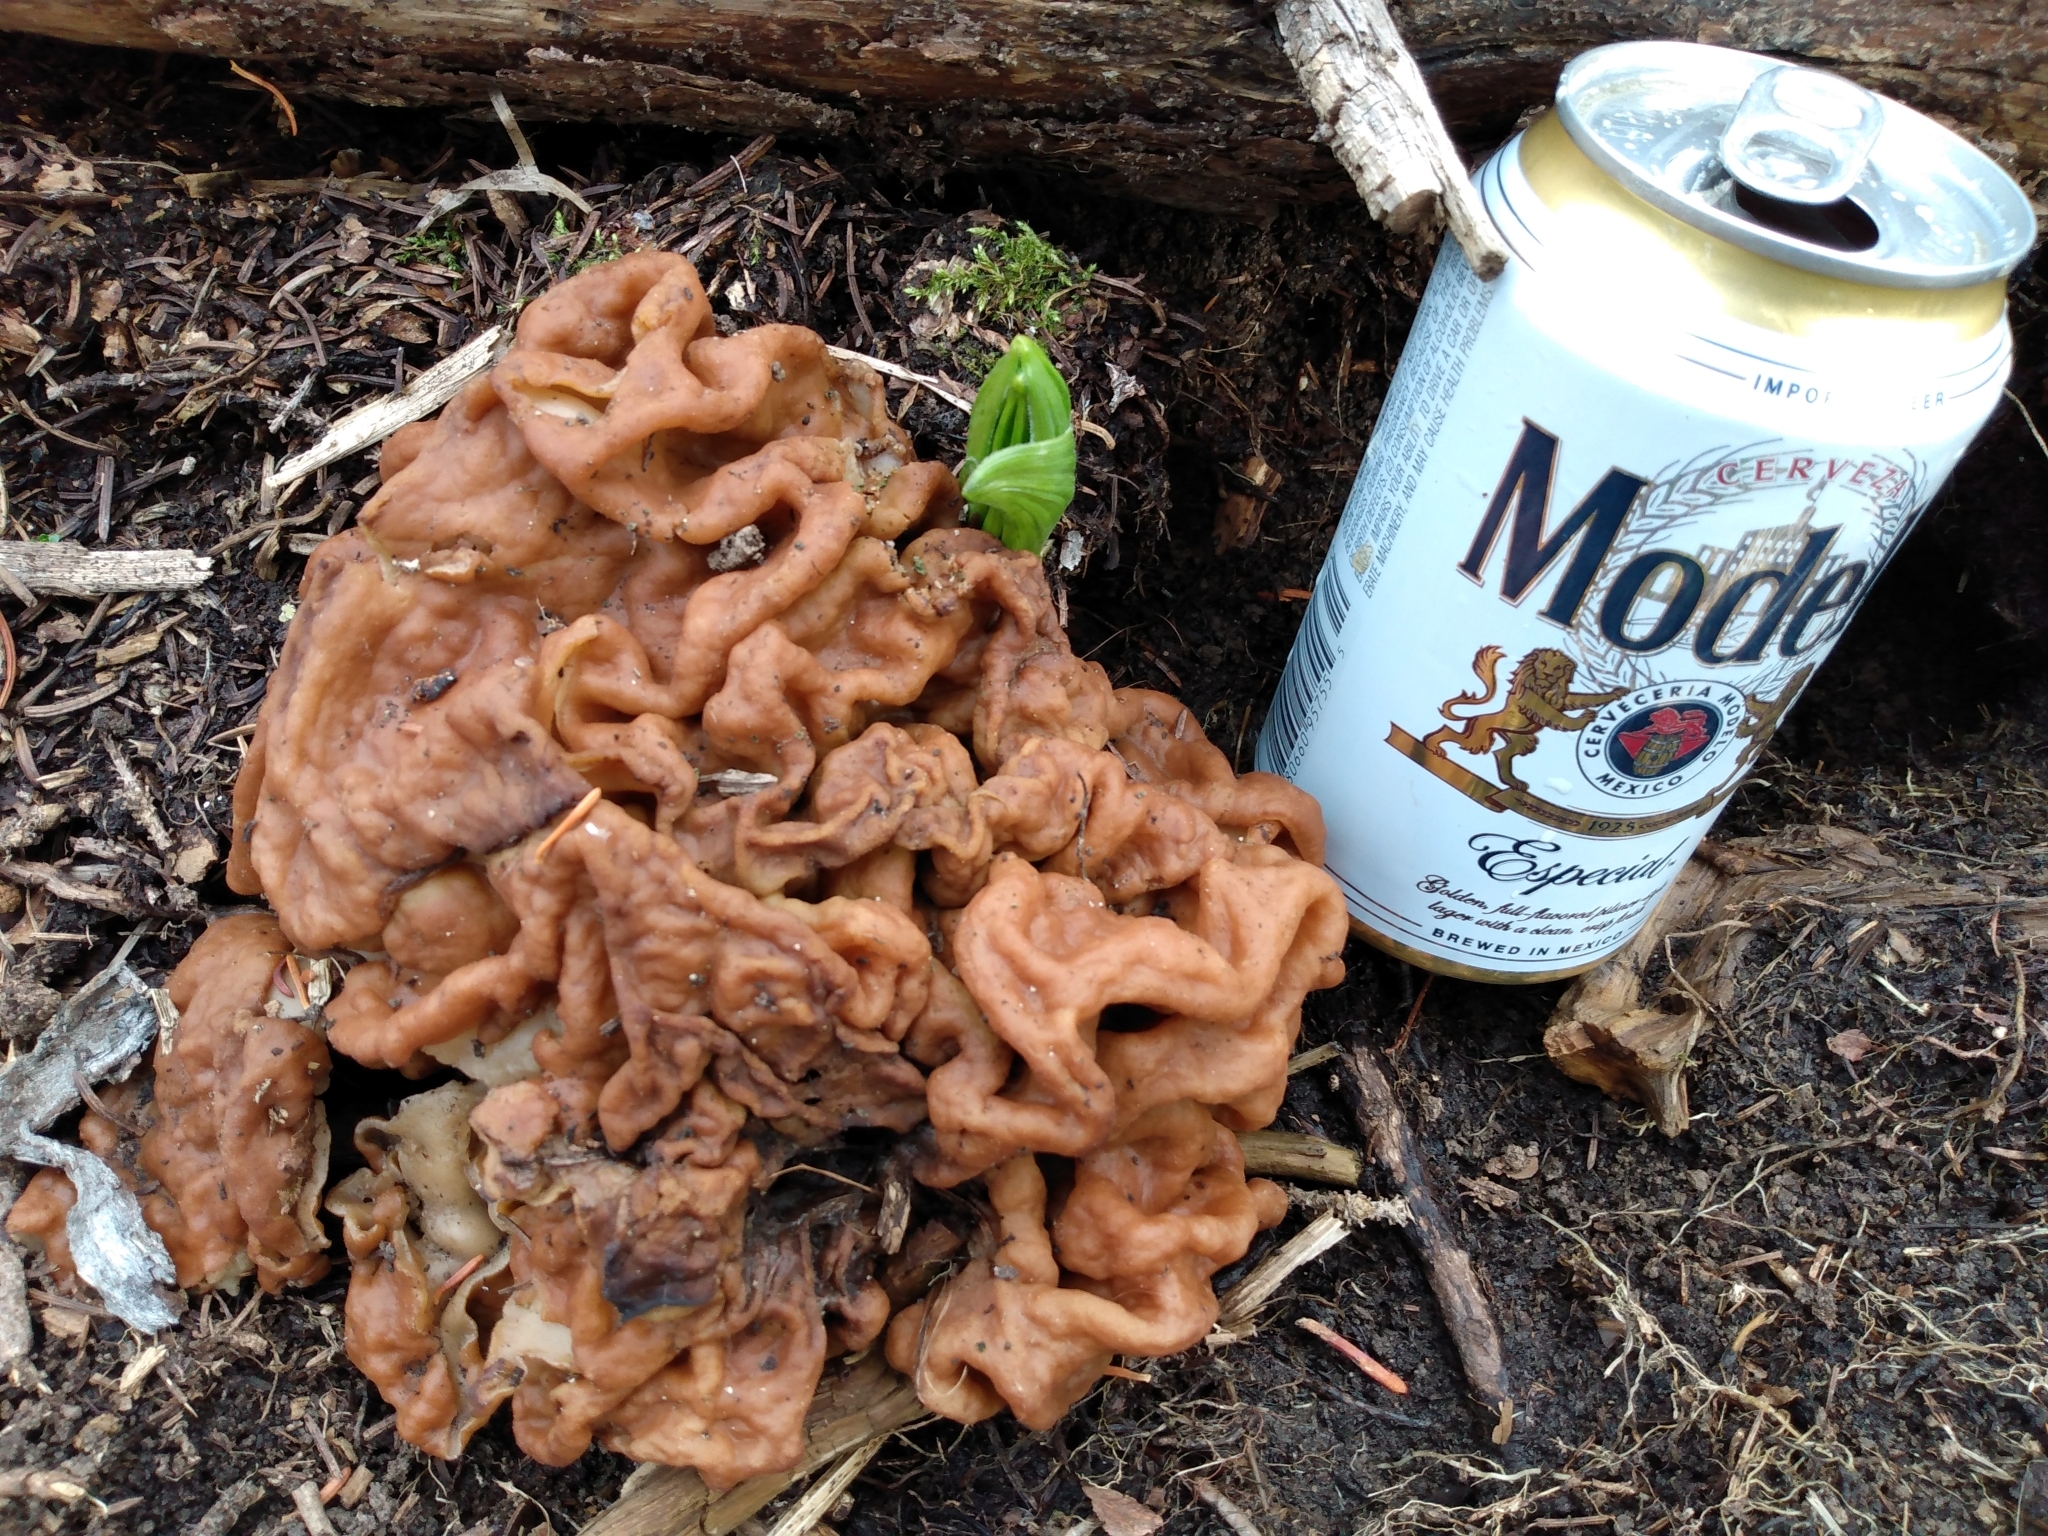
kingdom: Fungi
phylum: Ascomycota
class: Pezizomycetes
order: Pezizales
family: Discinaceae
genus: Discina
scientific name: Discina montana
